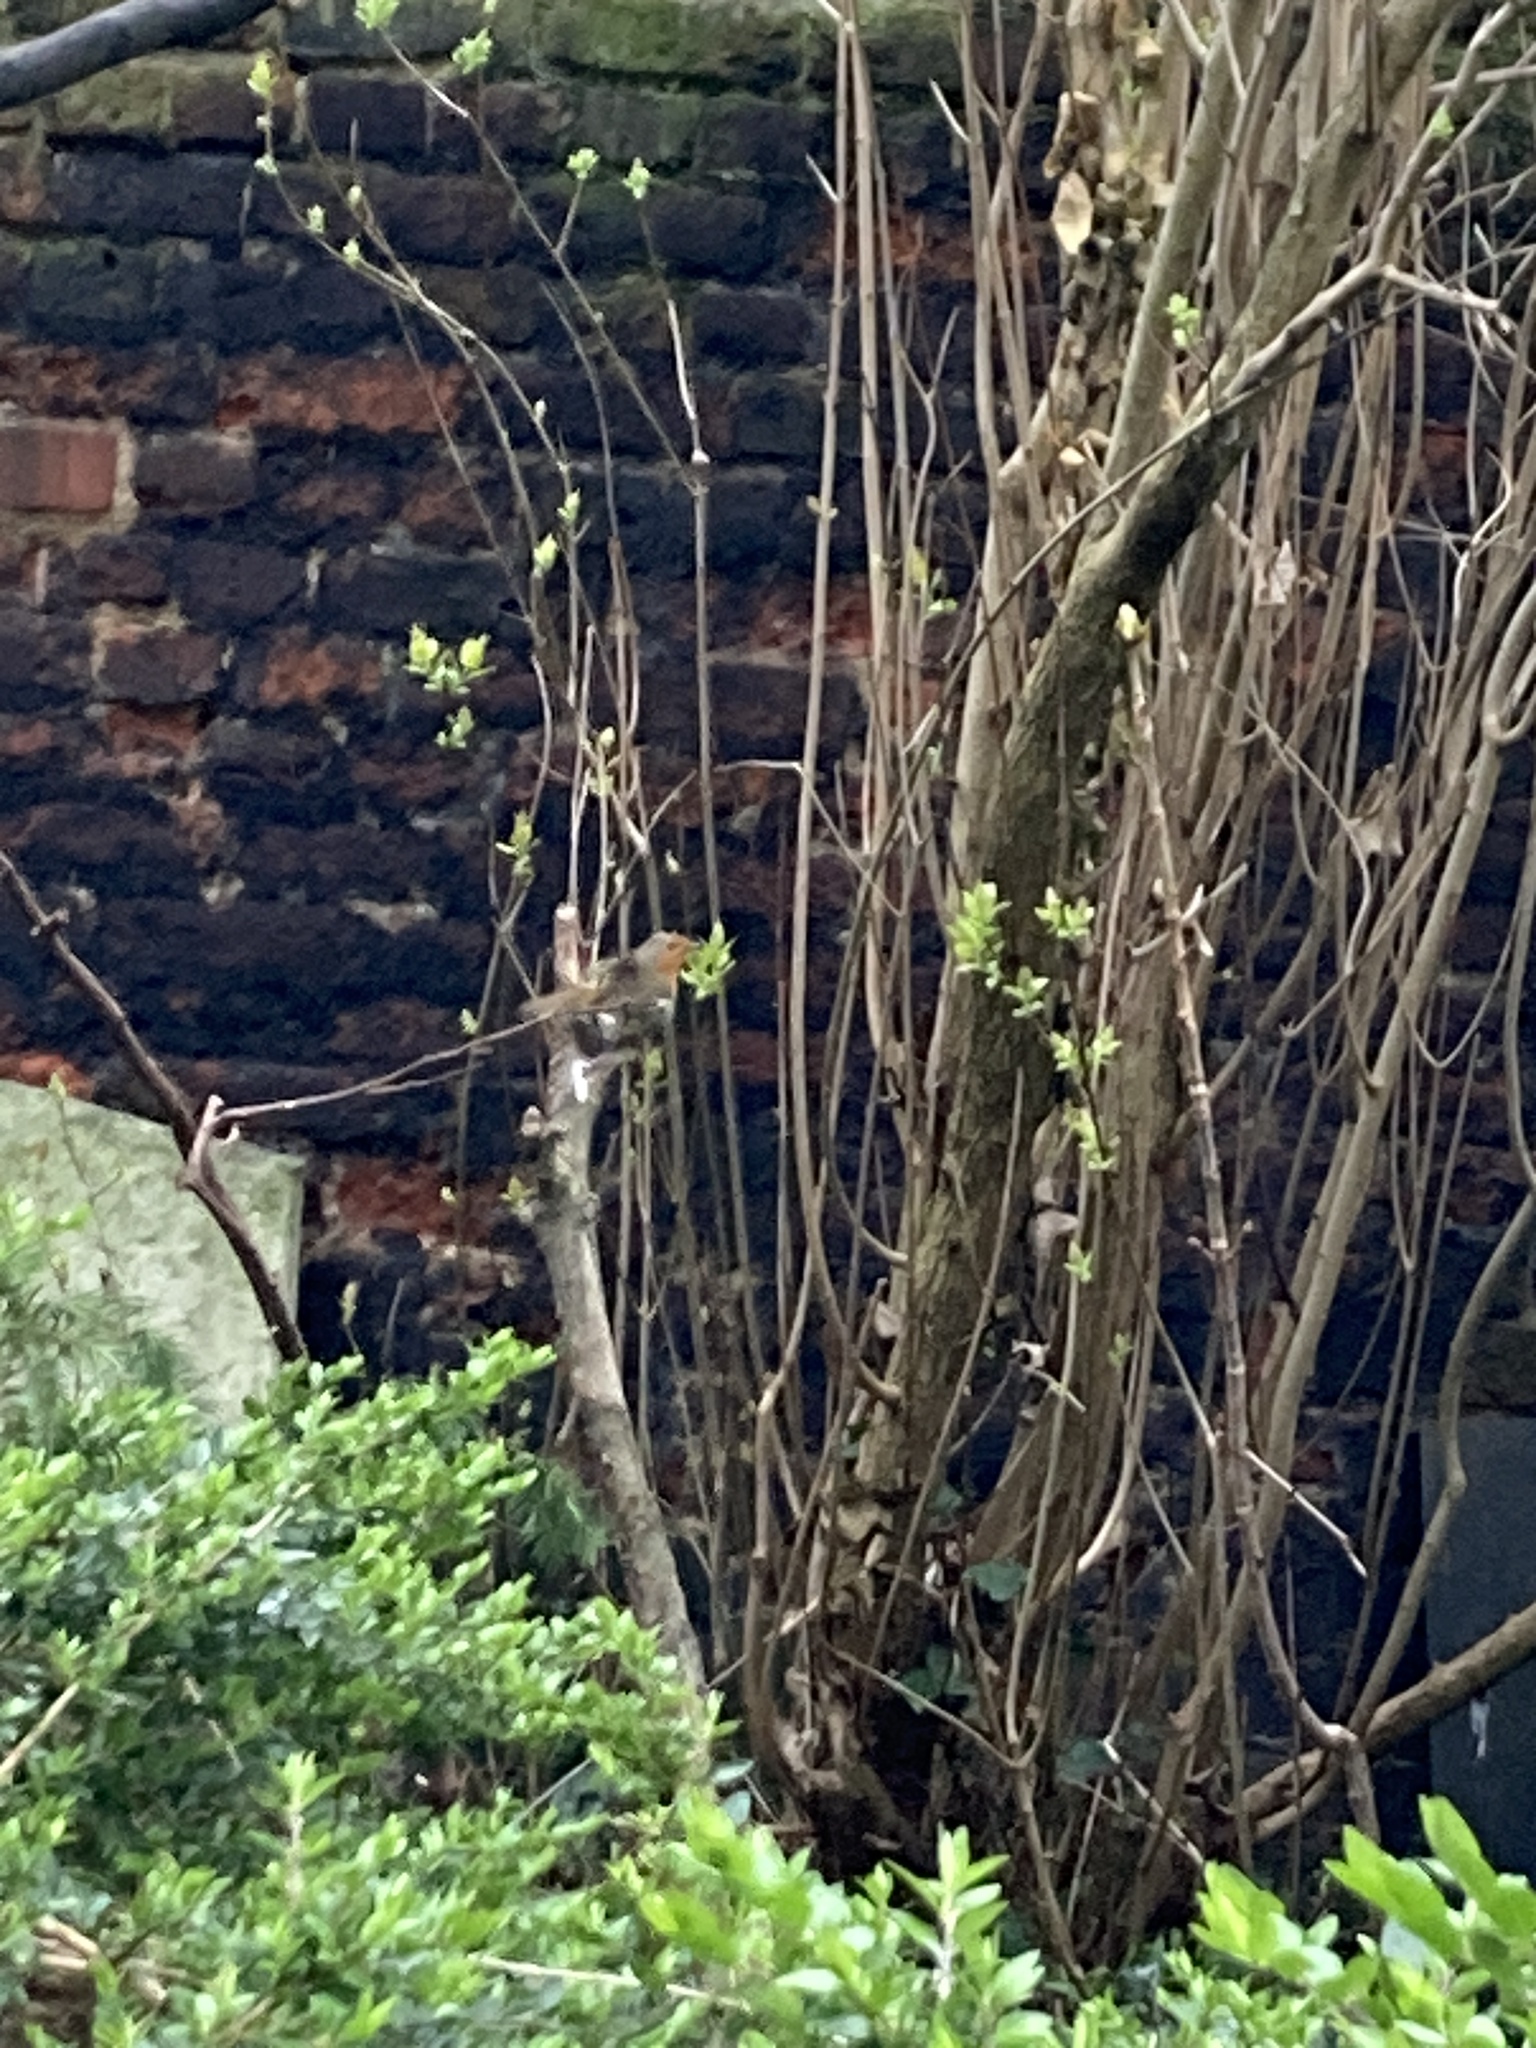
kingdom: Animalia
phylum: Chordata
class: Aves
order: Passeriformes
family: Muscicapidae
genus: Erithacus
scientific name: Erithacus rubecula
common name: European robin
